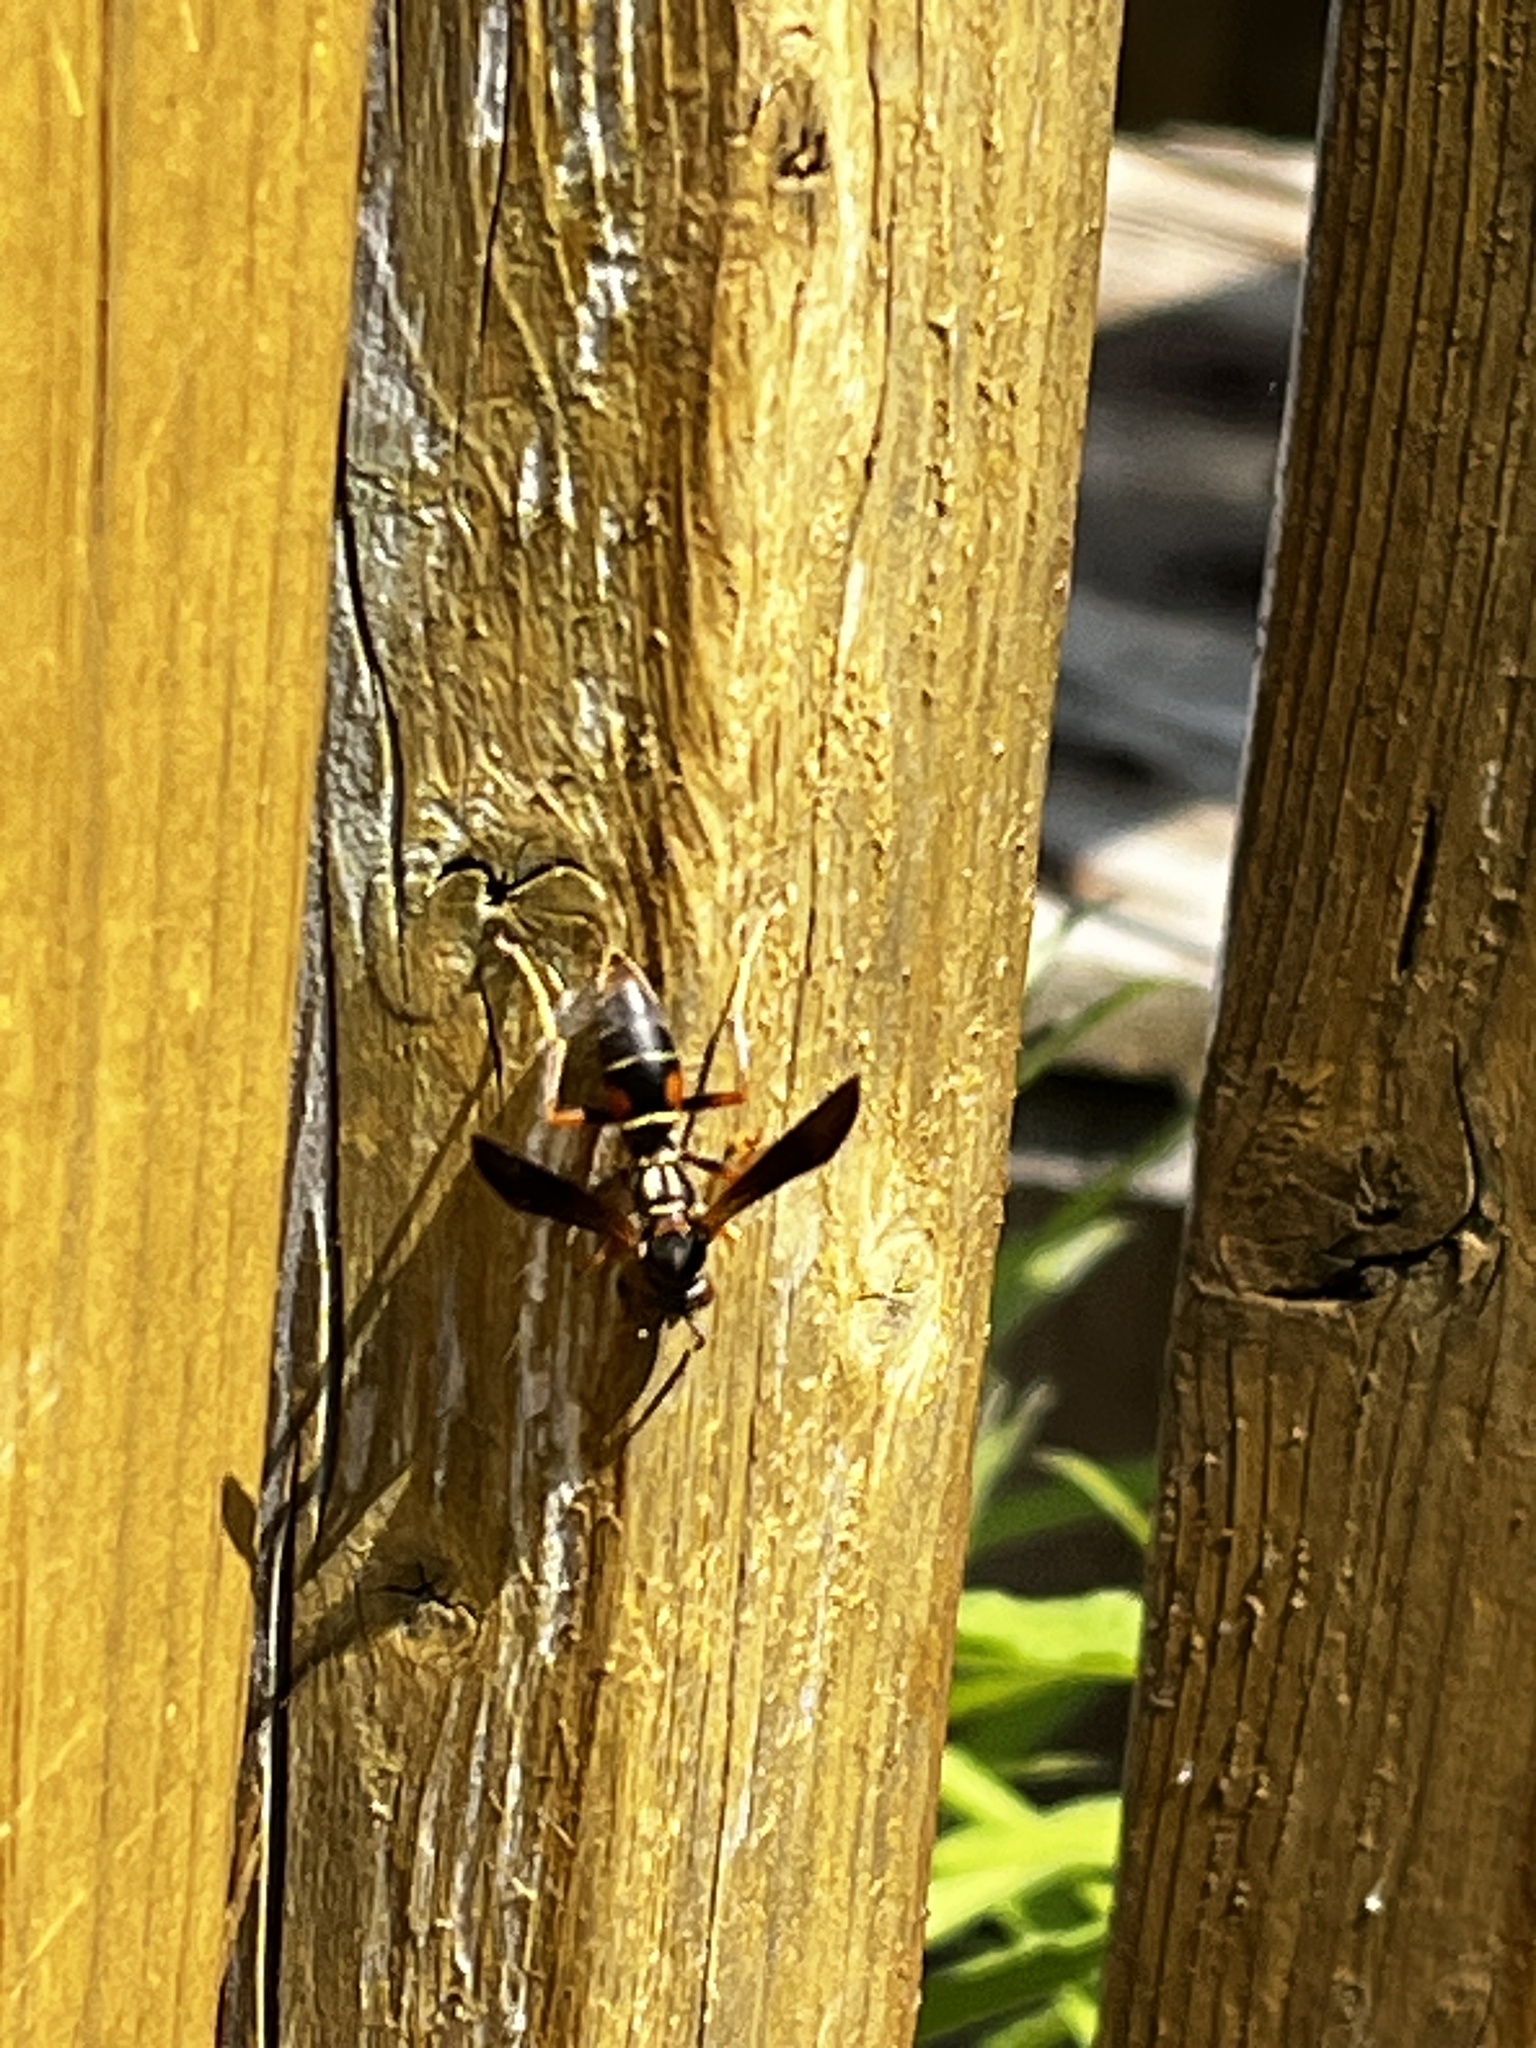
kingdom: Animalia
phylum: Arthropoda
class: Insecta
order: Hymenoptera
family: Eumenidae
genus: Polistes
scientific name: Polistes fuscatus
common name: Dark paper wasp
